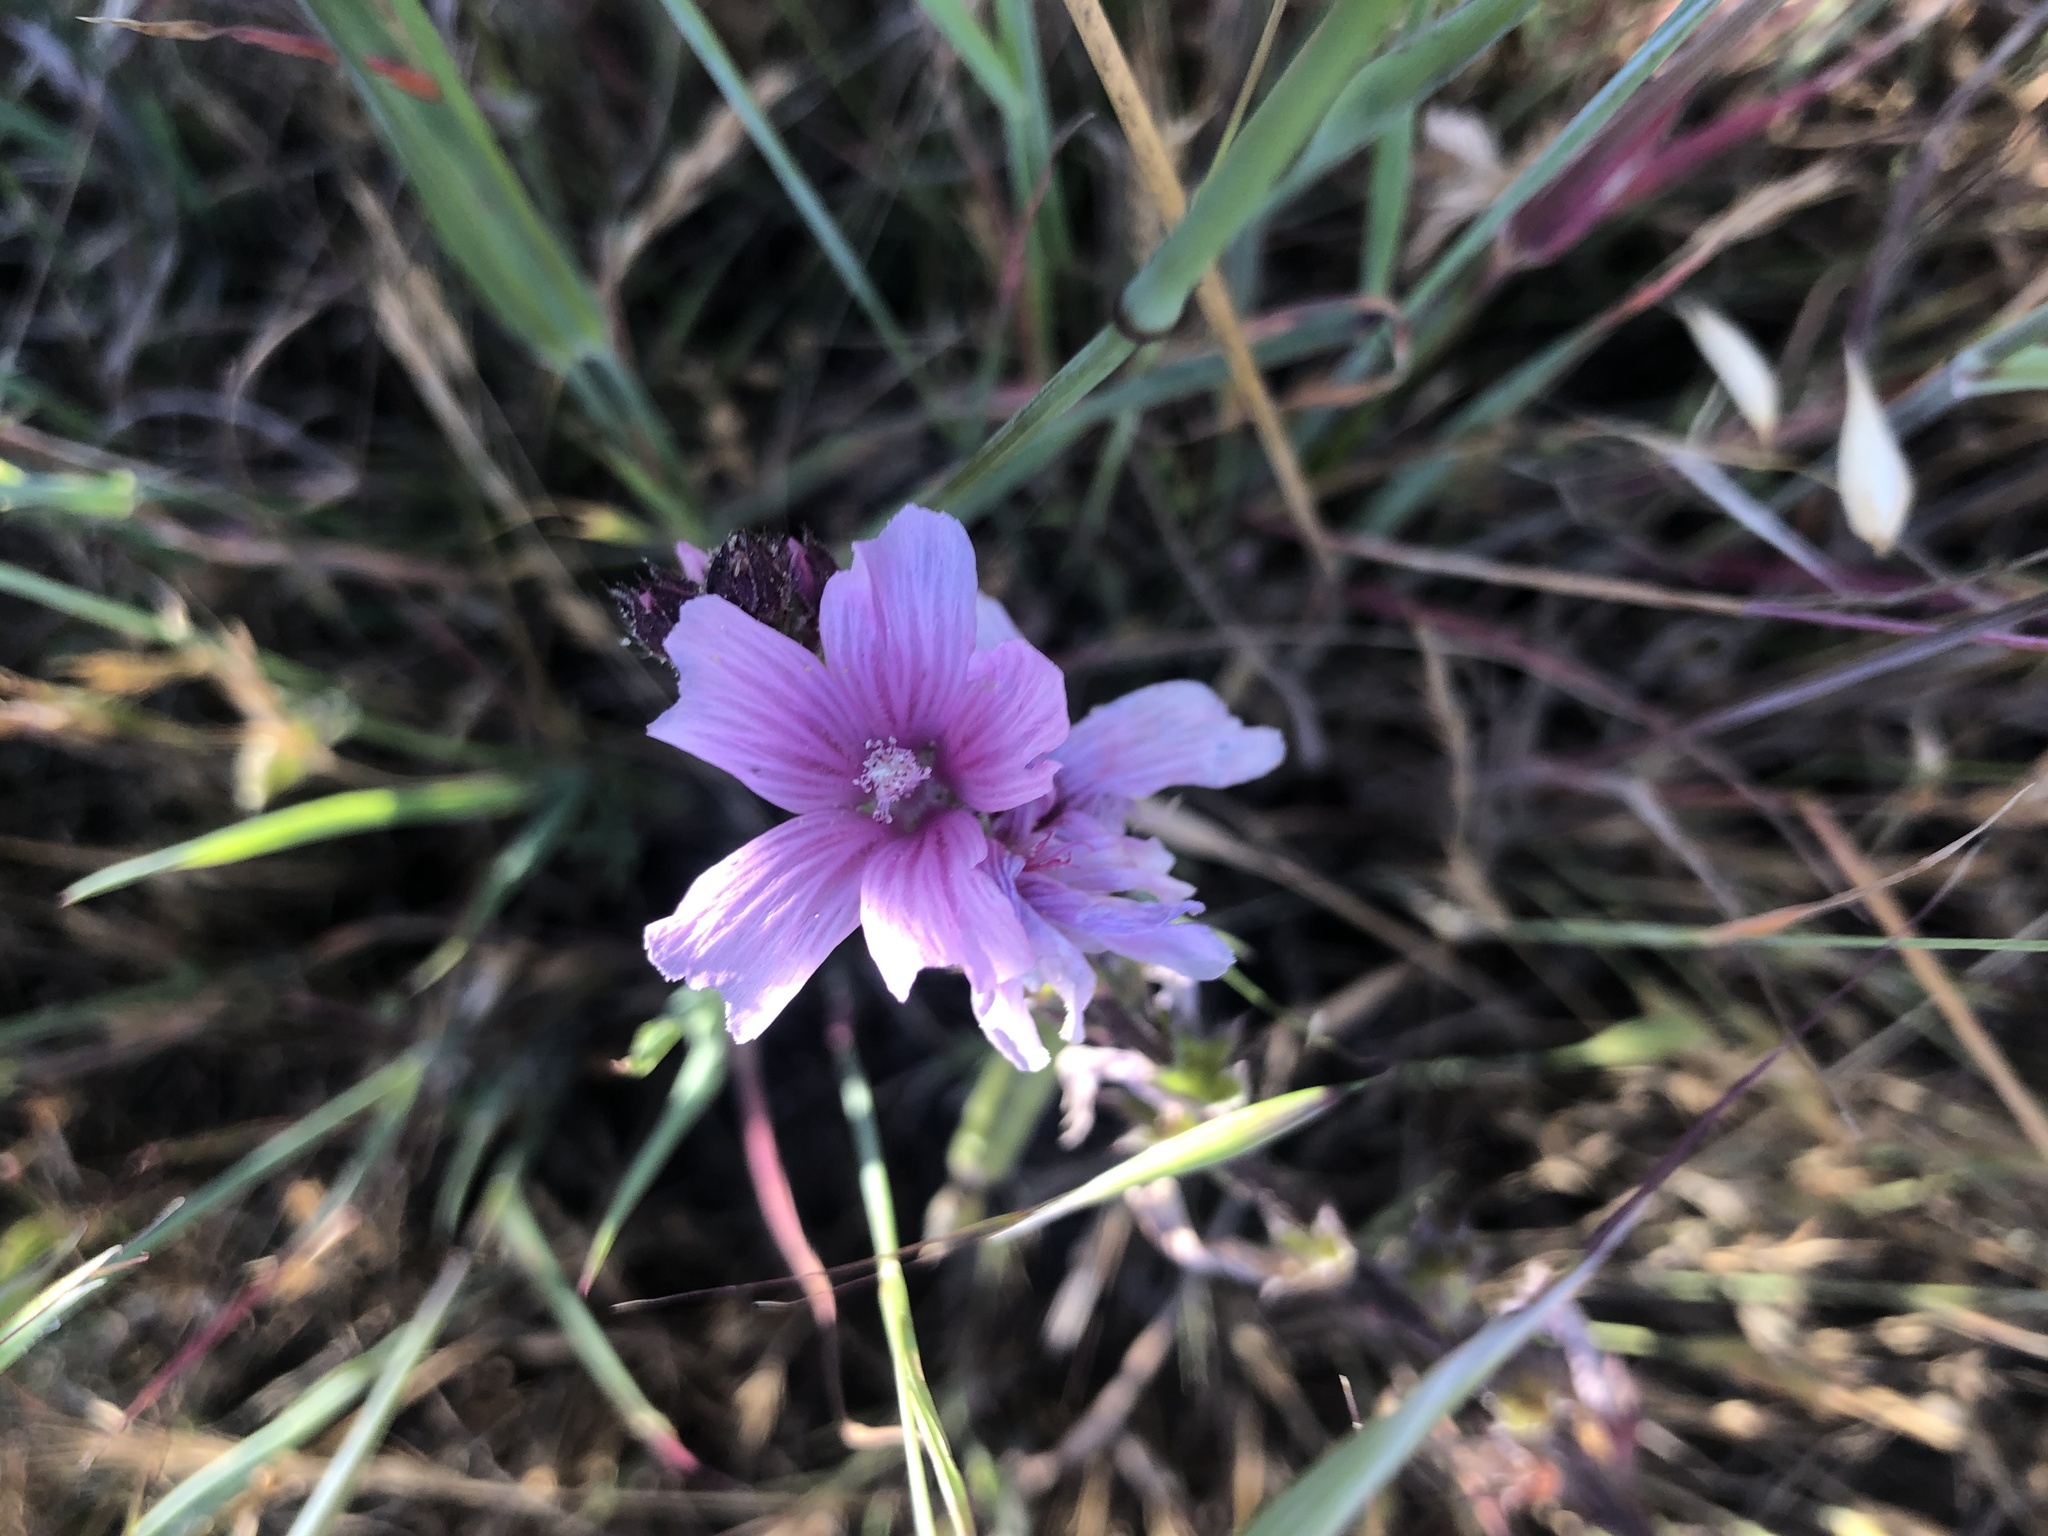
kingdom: Plantae
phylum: Tracheophyta
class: Magnoliopsida
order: Malvales
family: Malvaceae
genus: Sidalcea
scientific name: Sidalcea malviflora
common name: Greek mallow
